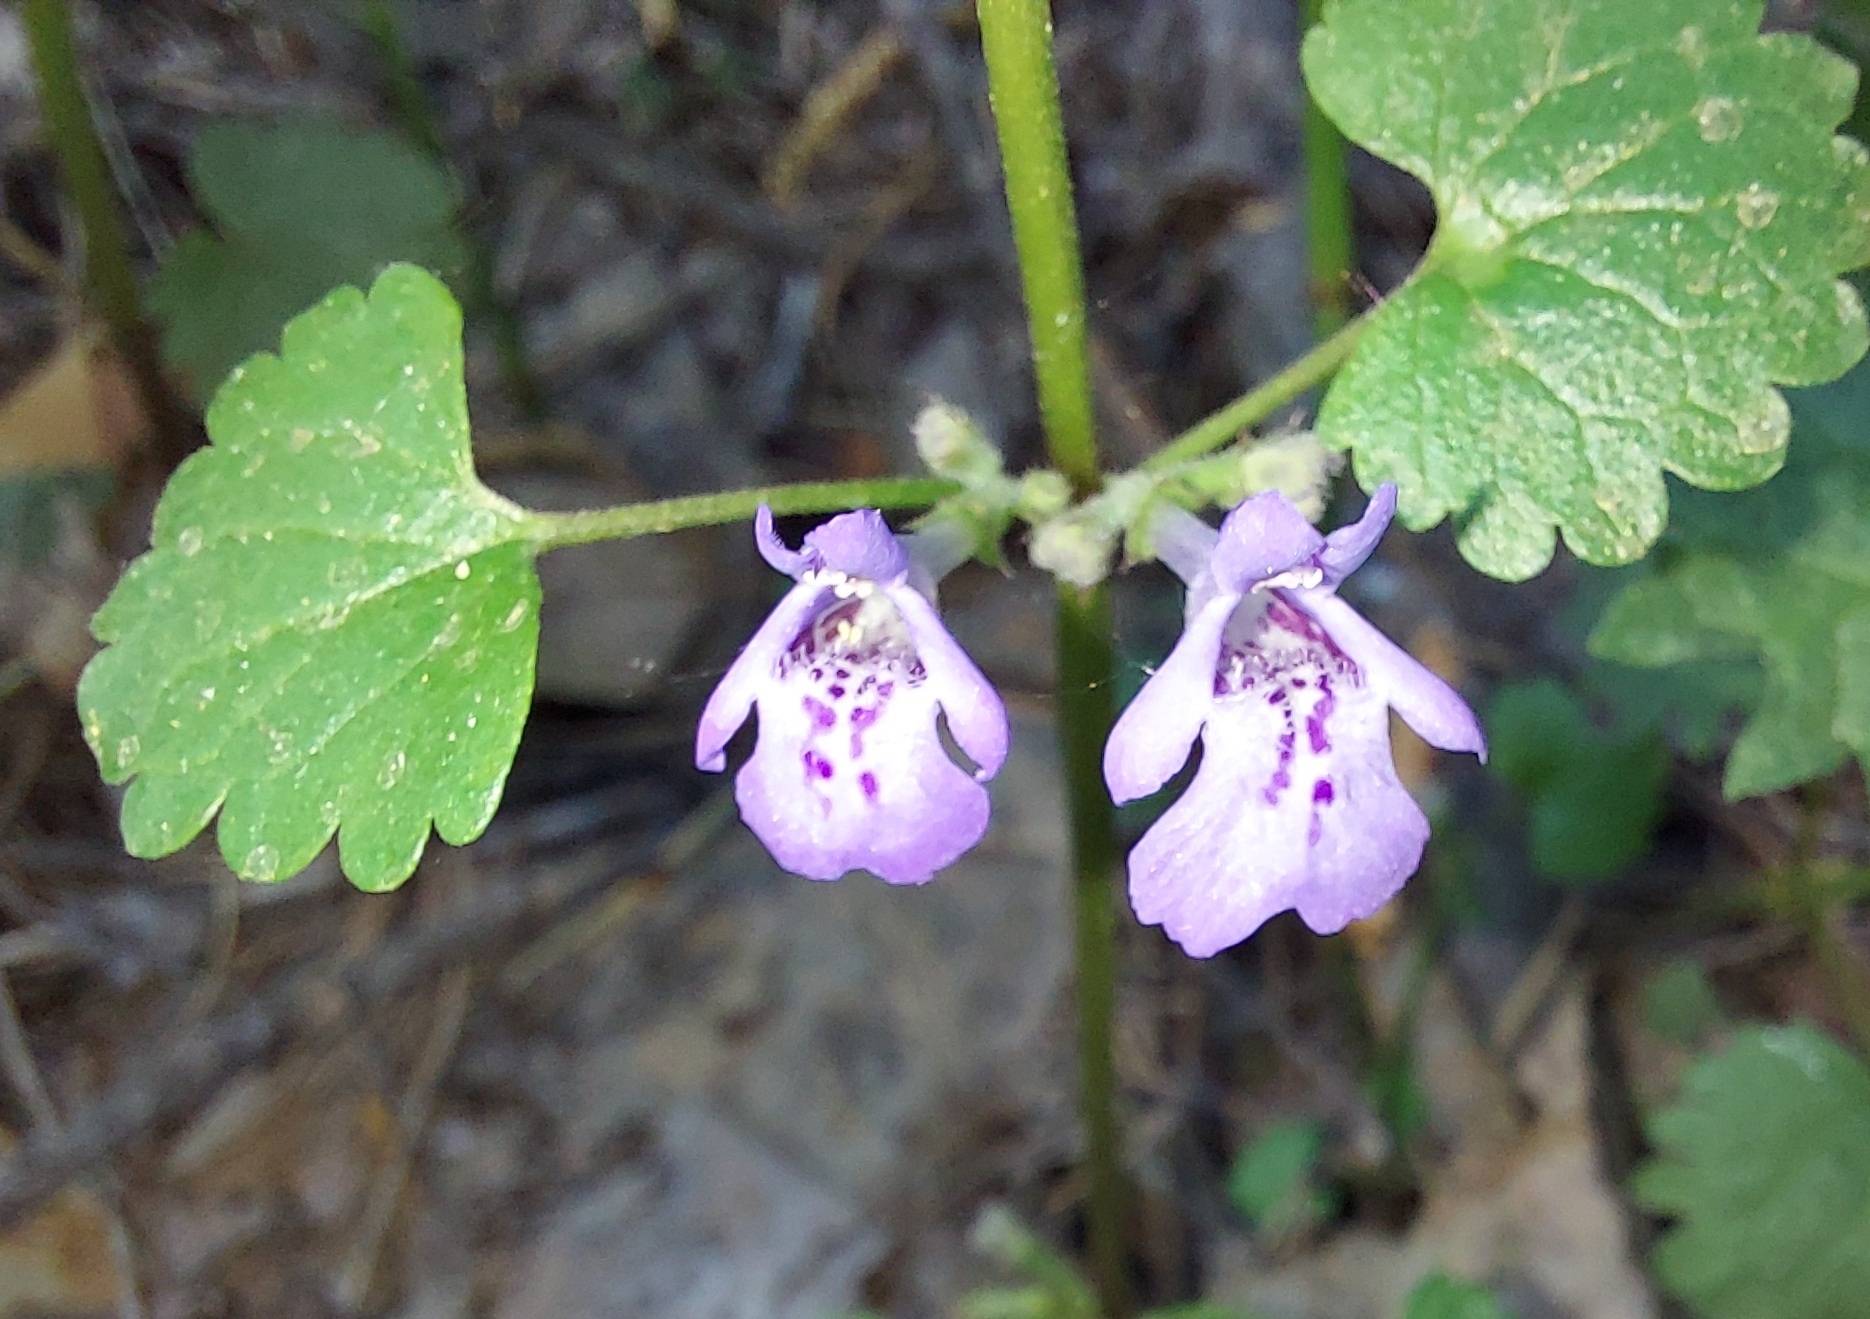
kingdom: Plantae
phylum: Tracheophyta
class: Magnoliopsida
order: Lamiales
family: Lamiaceae
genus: Glechoma
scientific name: Glechoma hederacea
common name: Ground ivy
